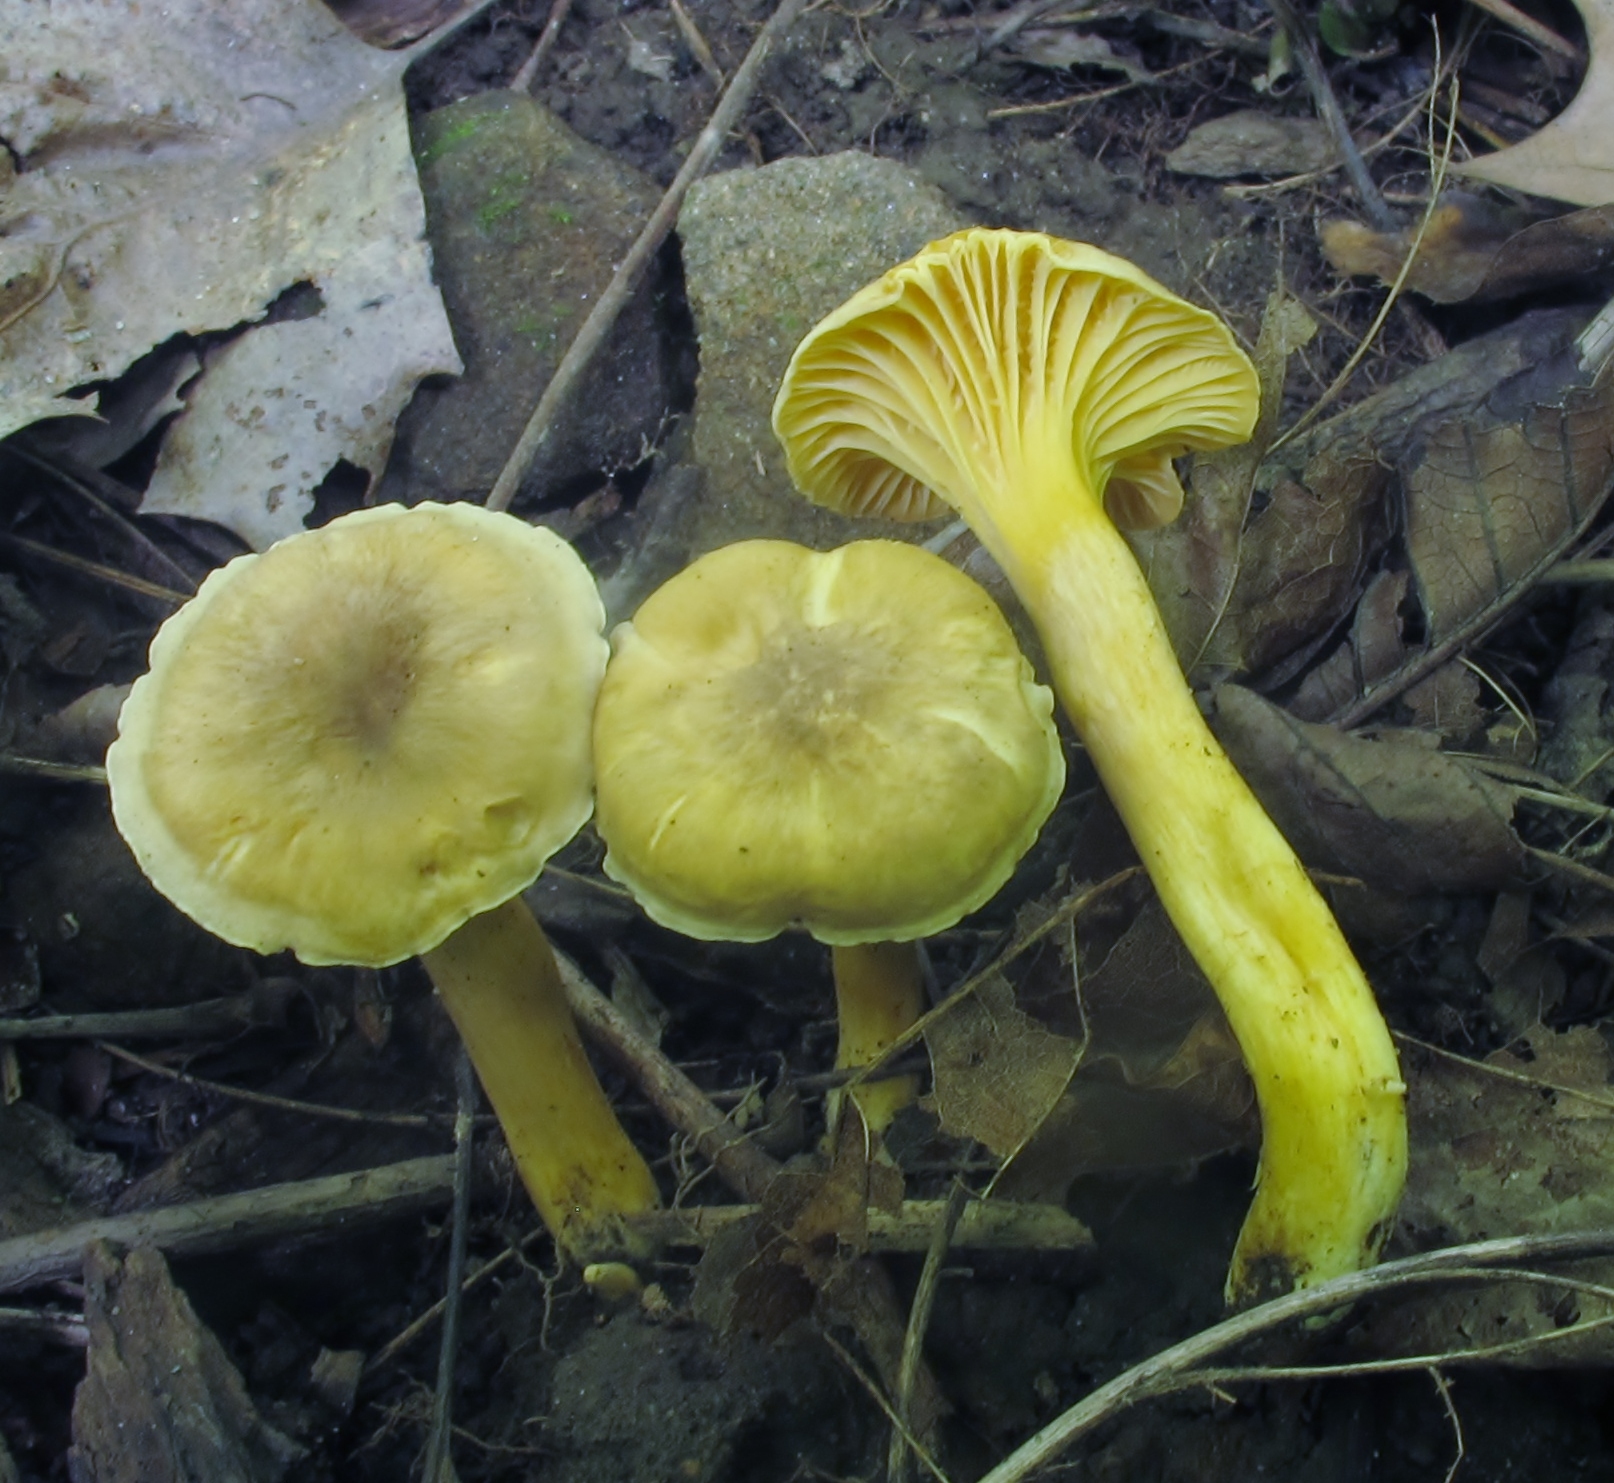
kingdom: Fungi
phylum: Basidiomycota
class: Agaricomycetes
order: Cantharellales
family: Hydnaceae
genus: Cantharellus
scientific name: Cantharellus appalachiensis
